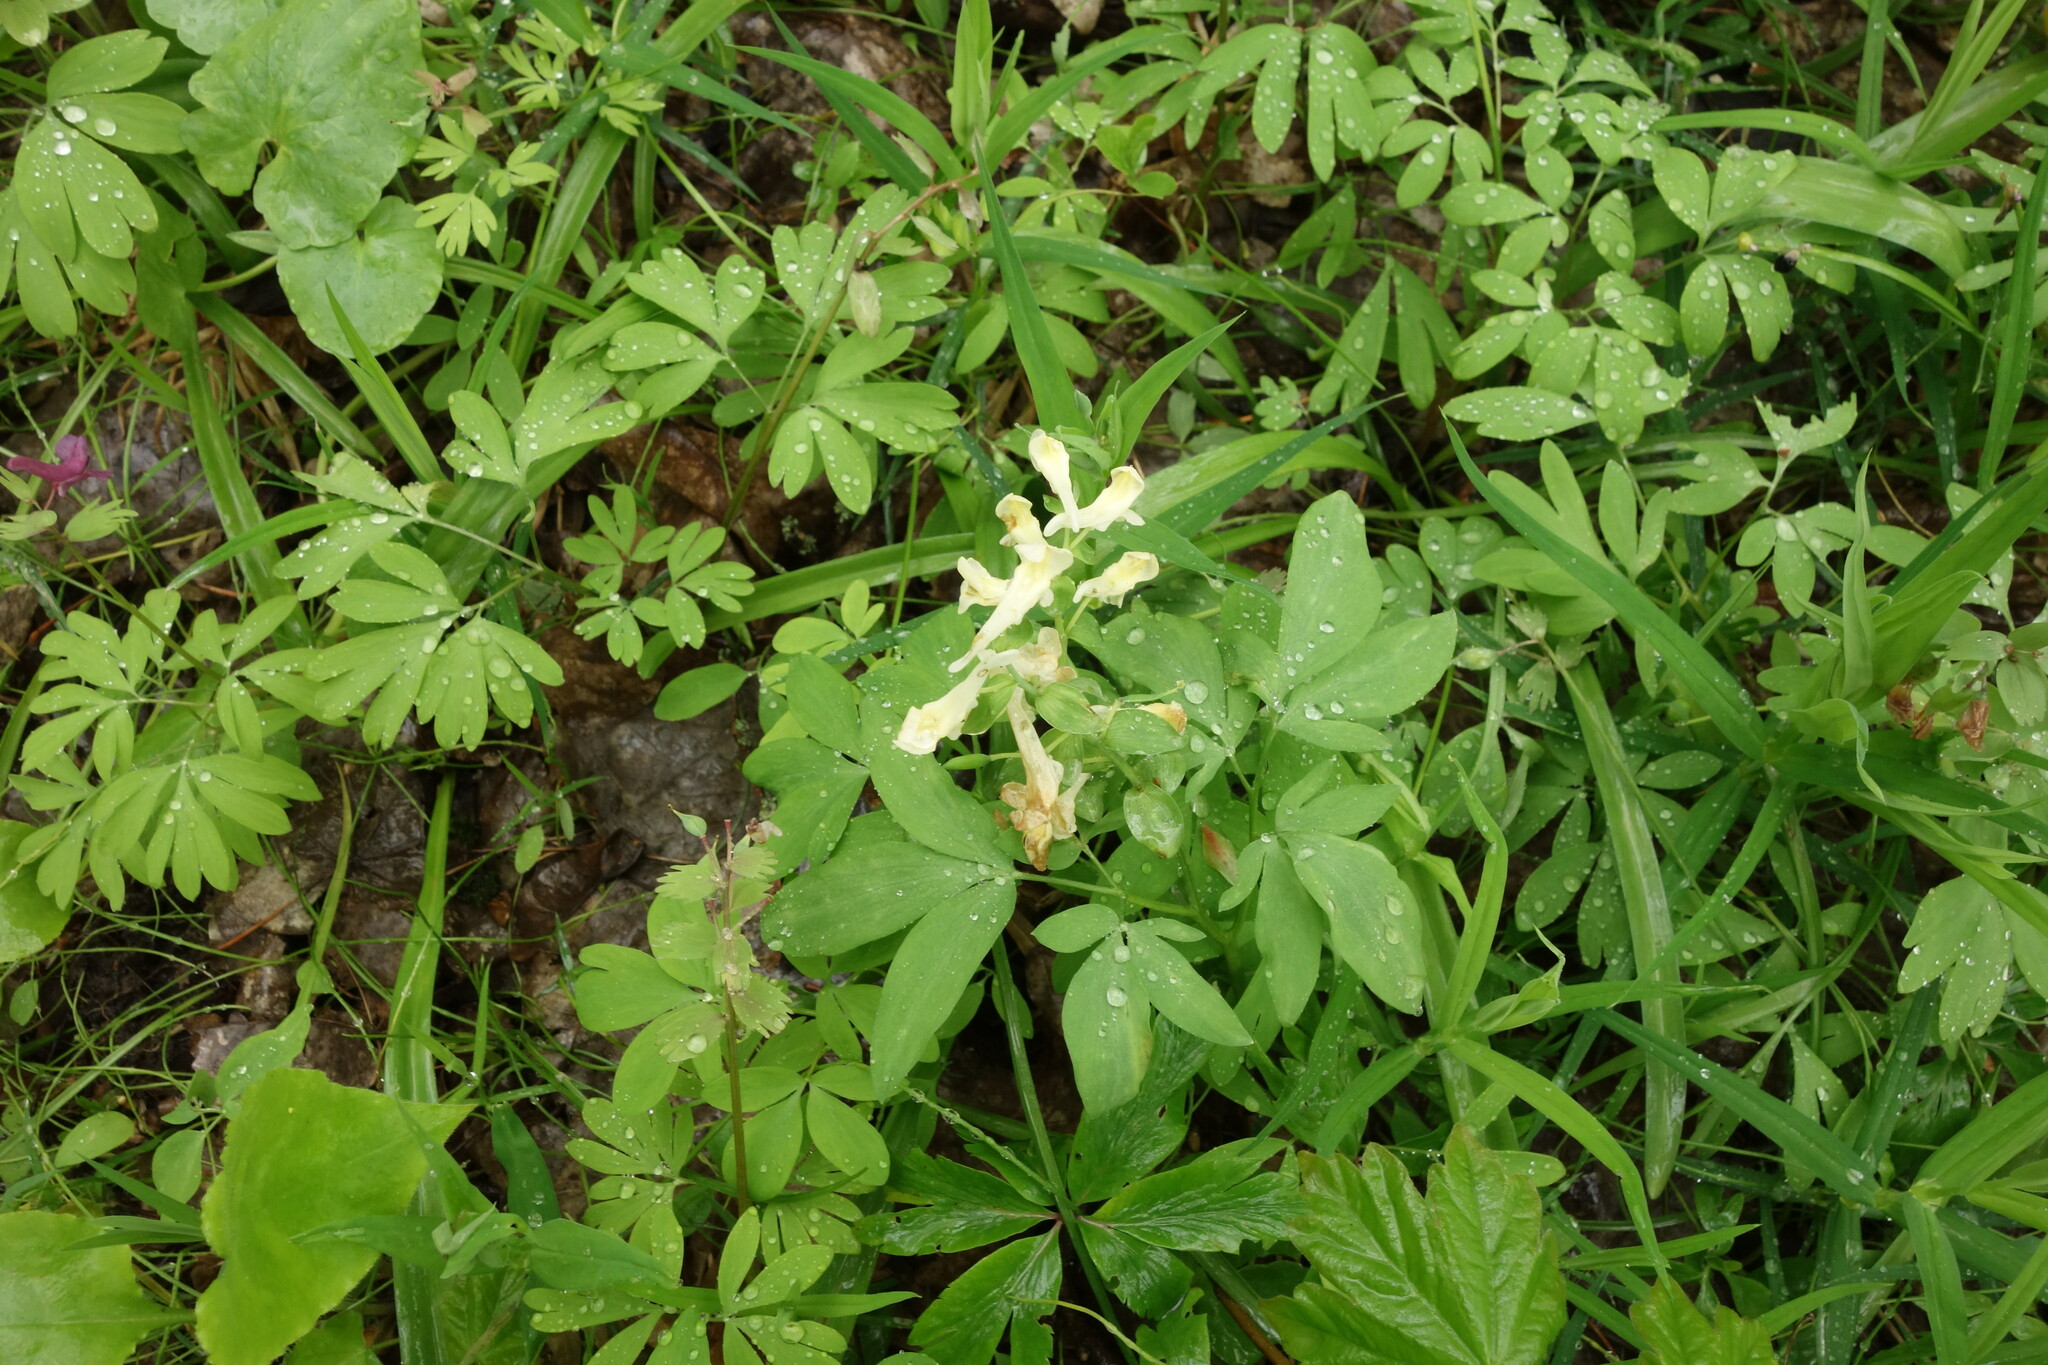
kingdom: Plantae
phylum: Tracheophyta
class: Magnoliopsida
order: Ranunculales
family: Papaveraceae
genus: Corydalis
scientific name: Corydalis cava
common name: Hollowroot
